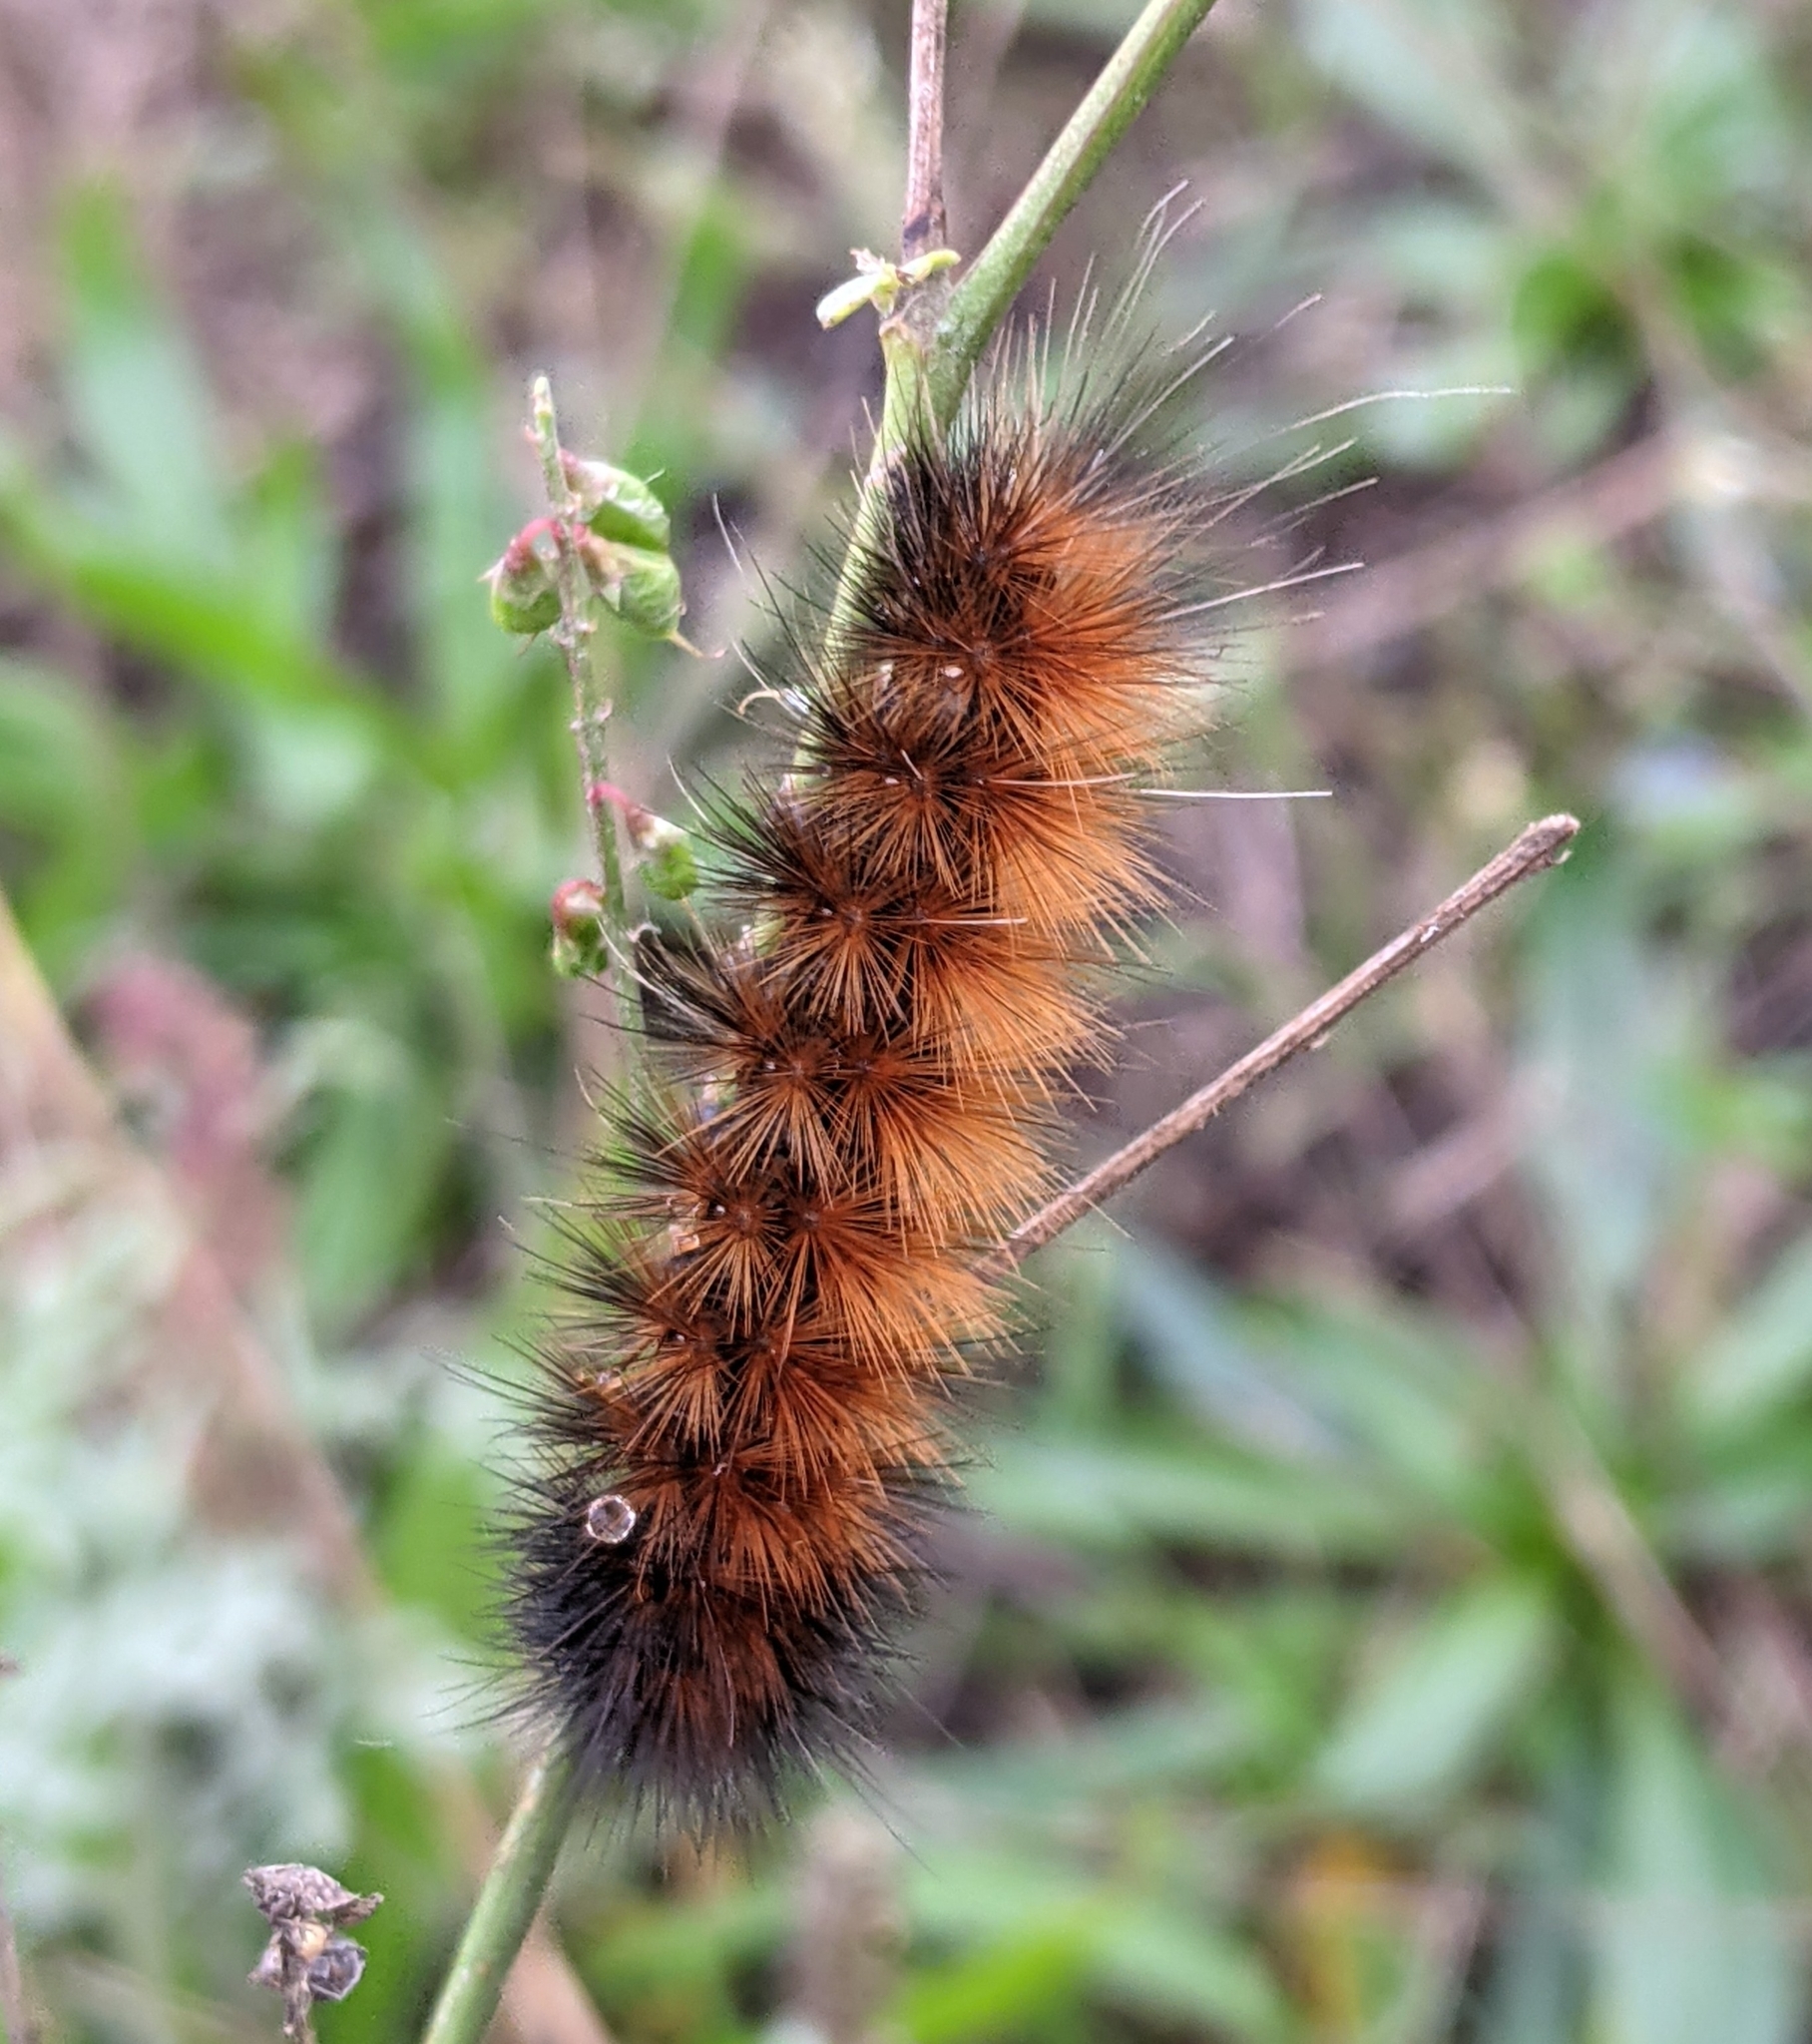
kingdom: Animalia
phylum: Arthropoda
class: Insecta
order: Lepidoptera
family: Erebidae
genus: Pyrrharctia
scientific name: Pyrrharctia isabella
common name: Isabella tiger moth
